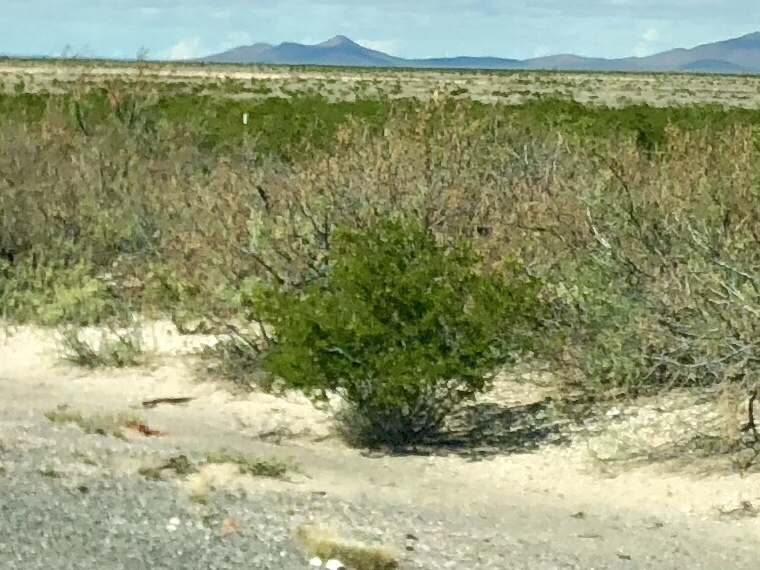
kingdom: Plantae
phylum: Tracheophyta
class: Magnoliopsida
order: Zygophyllales
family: Zygophyllaceae
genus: Larrea
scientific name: Larrea tridentata
